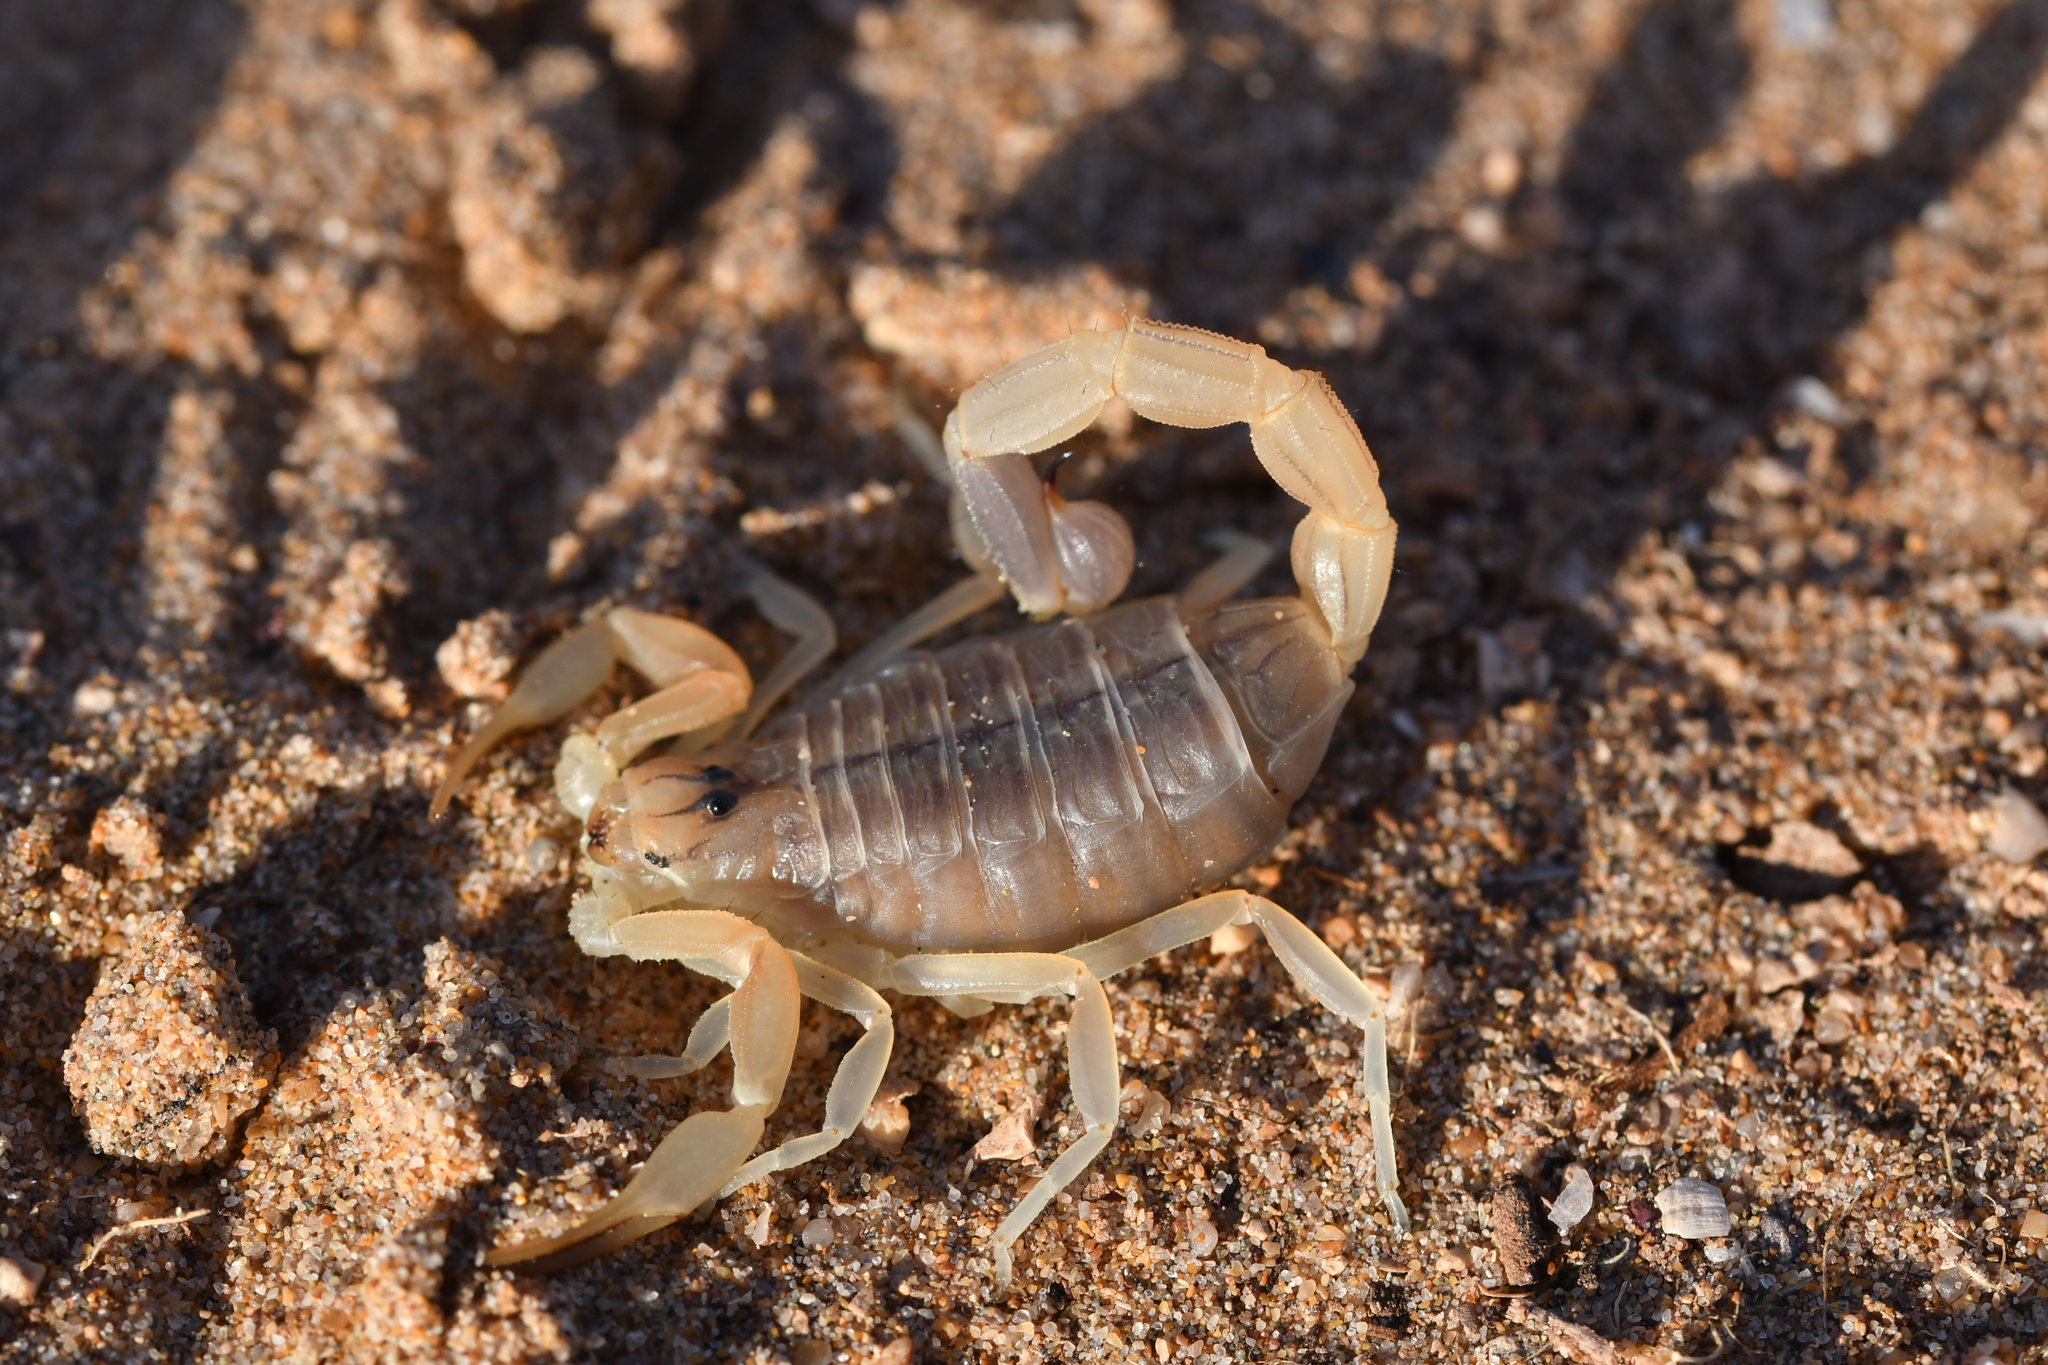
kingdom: Animalia
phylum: Arthropoda
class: Arachnida
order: Scorpiones
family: Buthidae
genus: Buthus
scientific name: Buthus bonito
